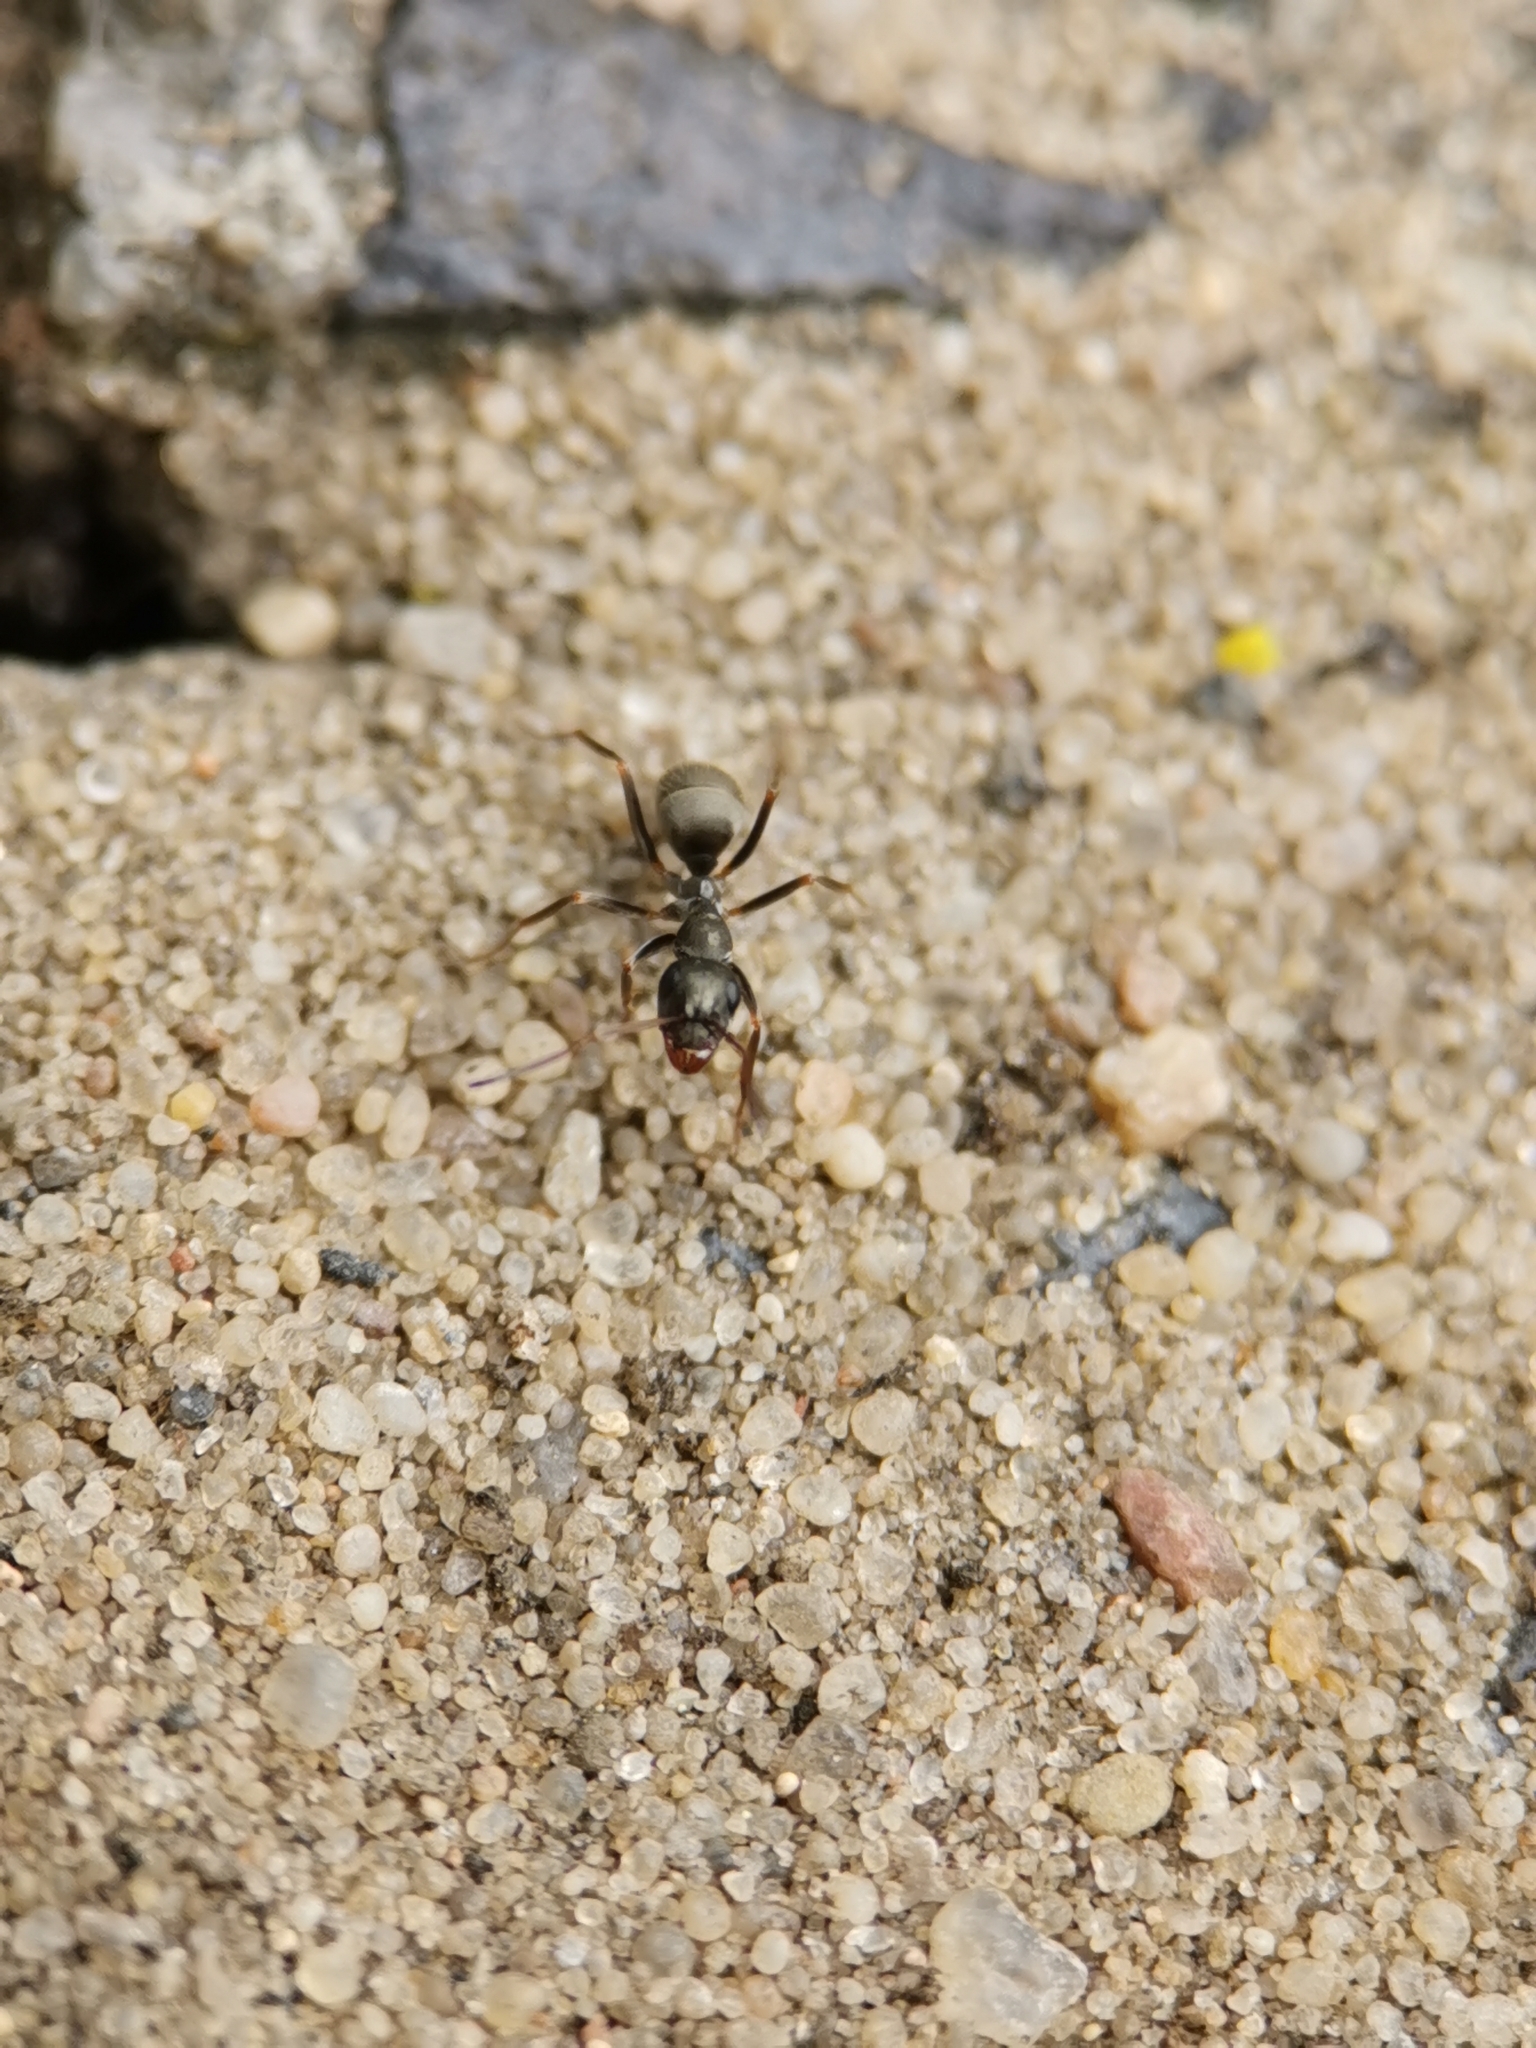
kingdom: Animalia
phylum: Arthropoda
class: Insecta
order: Hymenoptera
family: Formicidae
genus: Formica
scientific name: Formica cinerea
